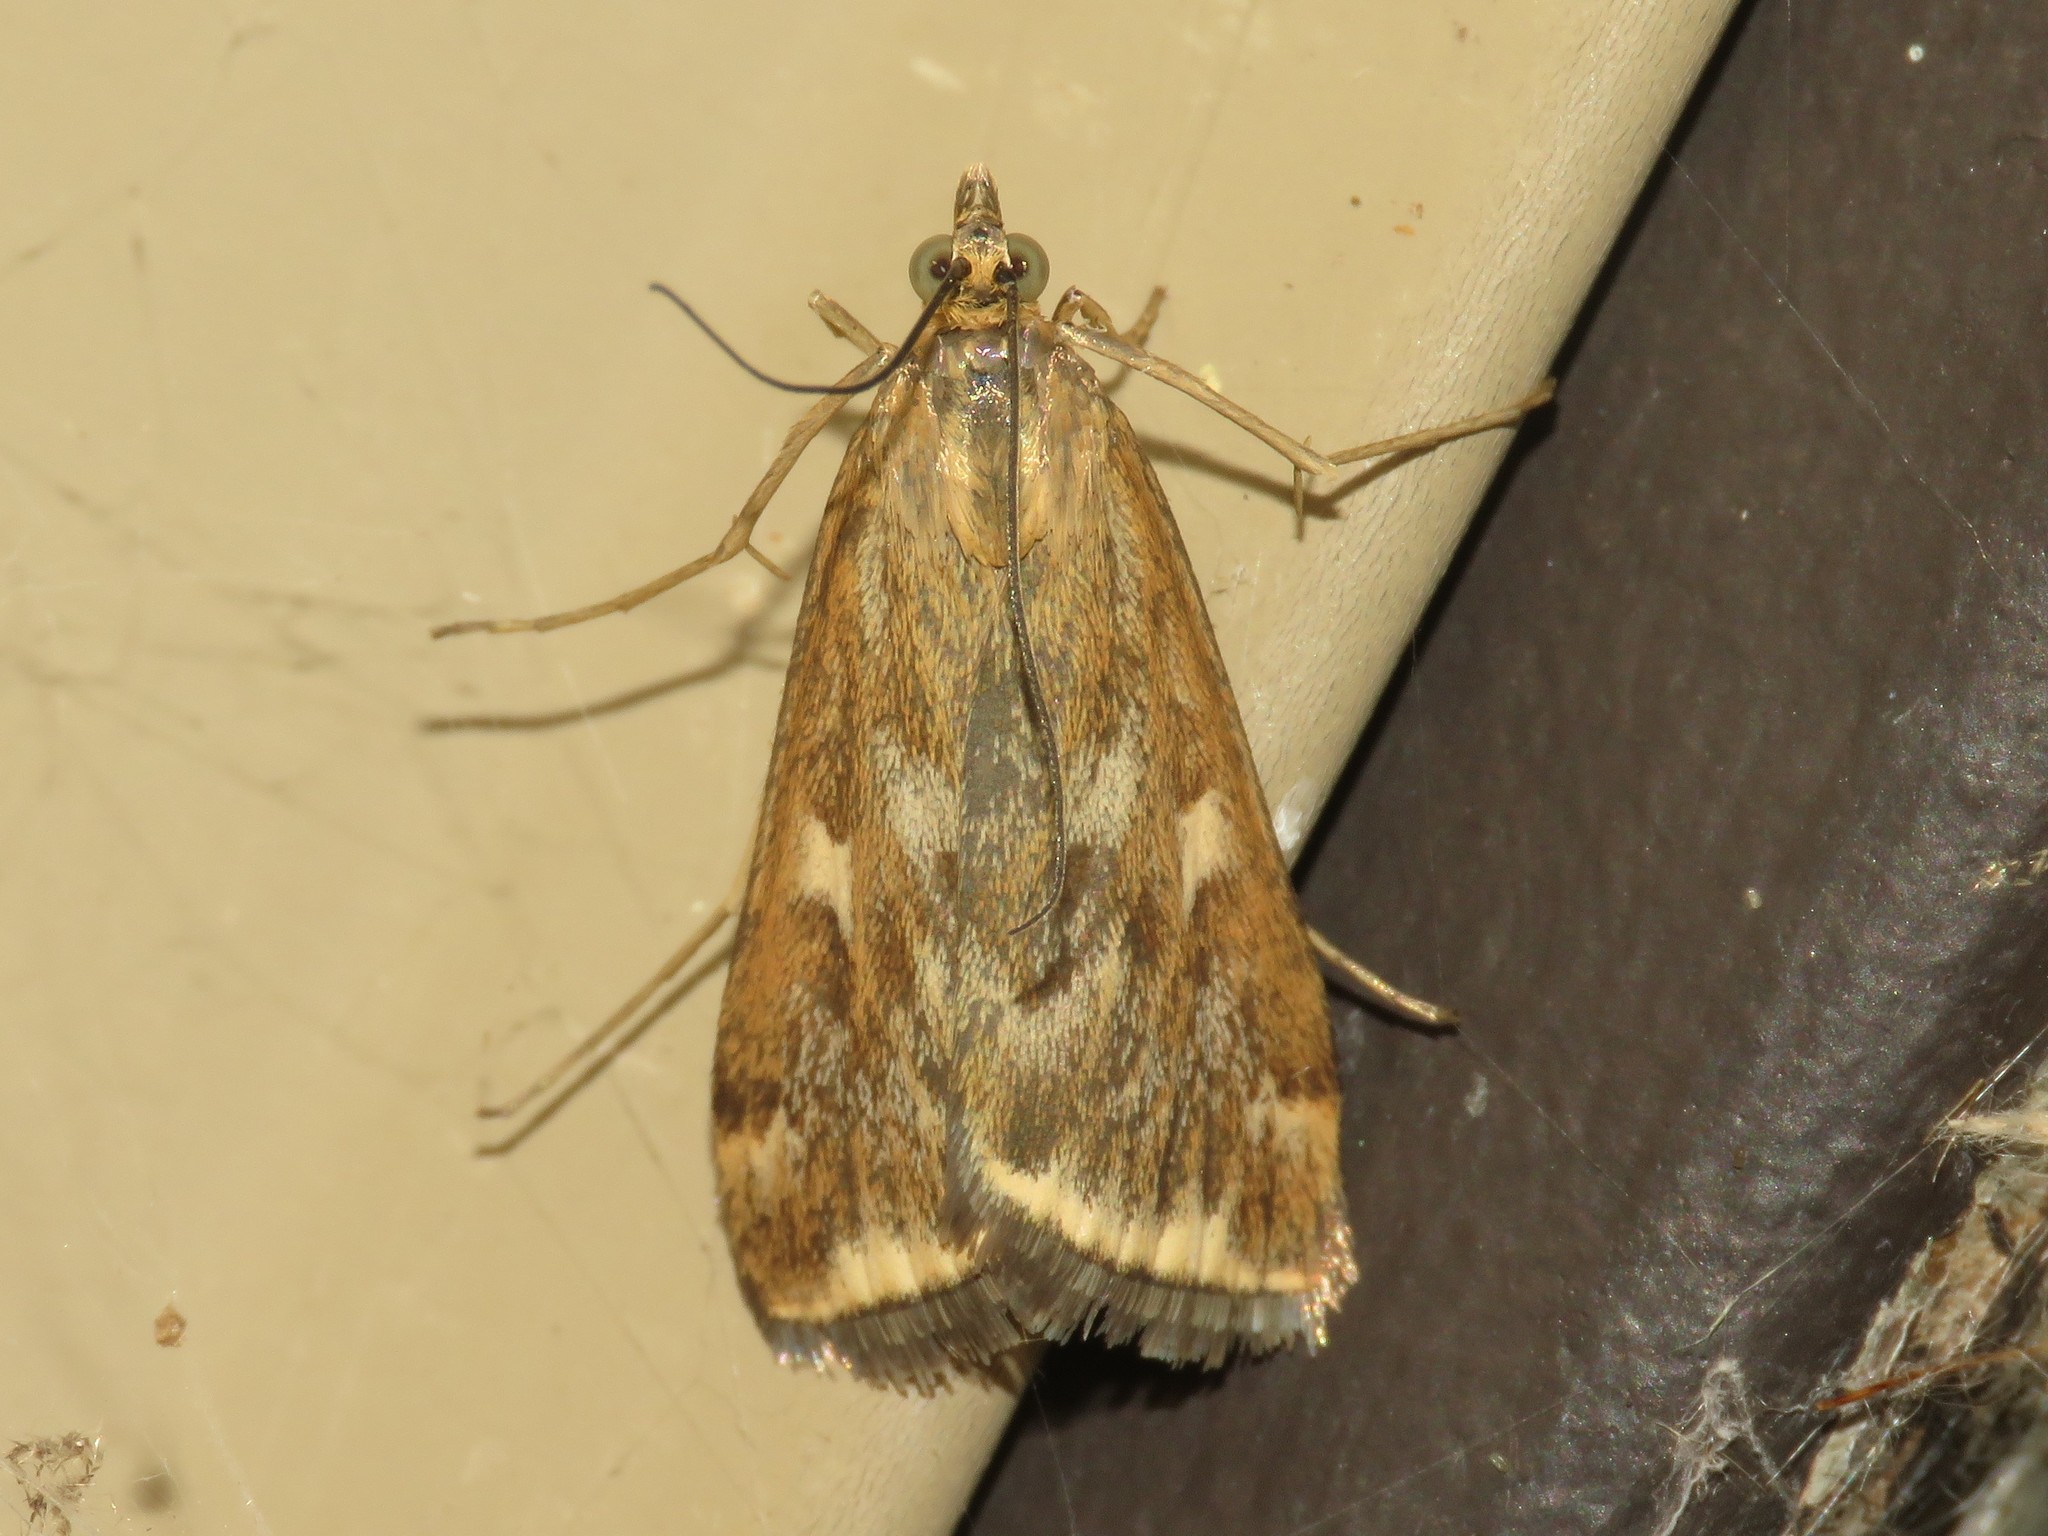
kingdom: Animalia
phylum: Arthropoda
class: Insecta
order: Lepidoptera
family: Crambidae
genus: Loxostege
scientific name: Loxostege
